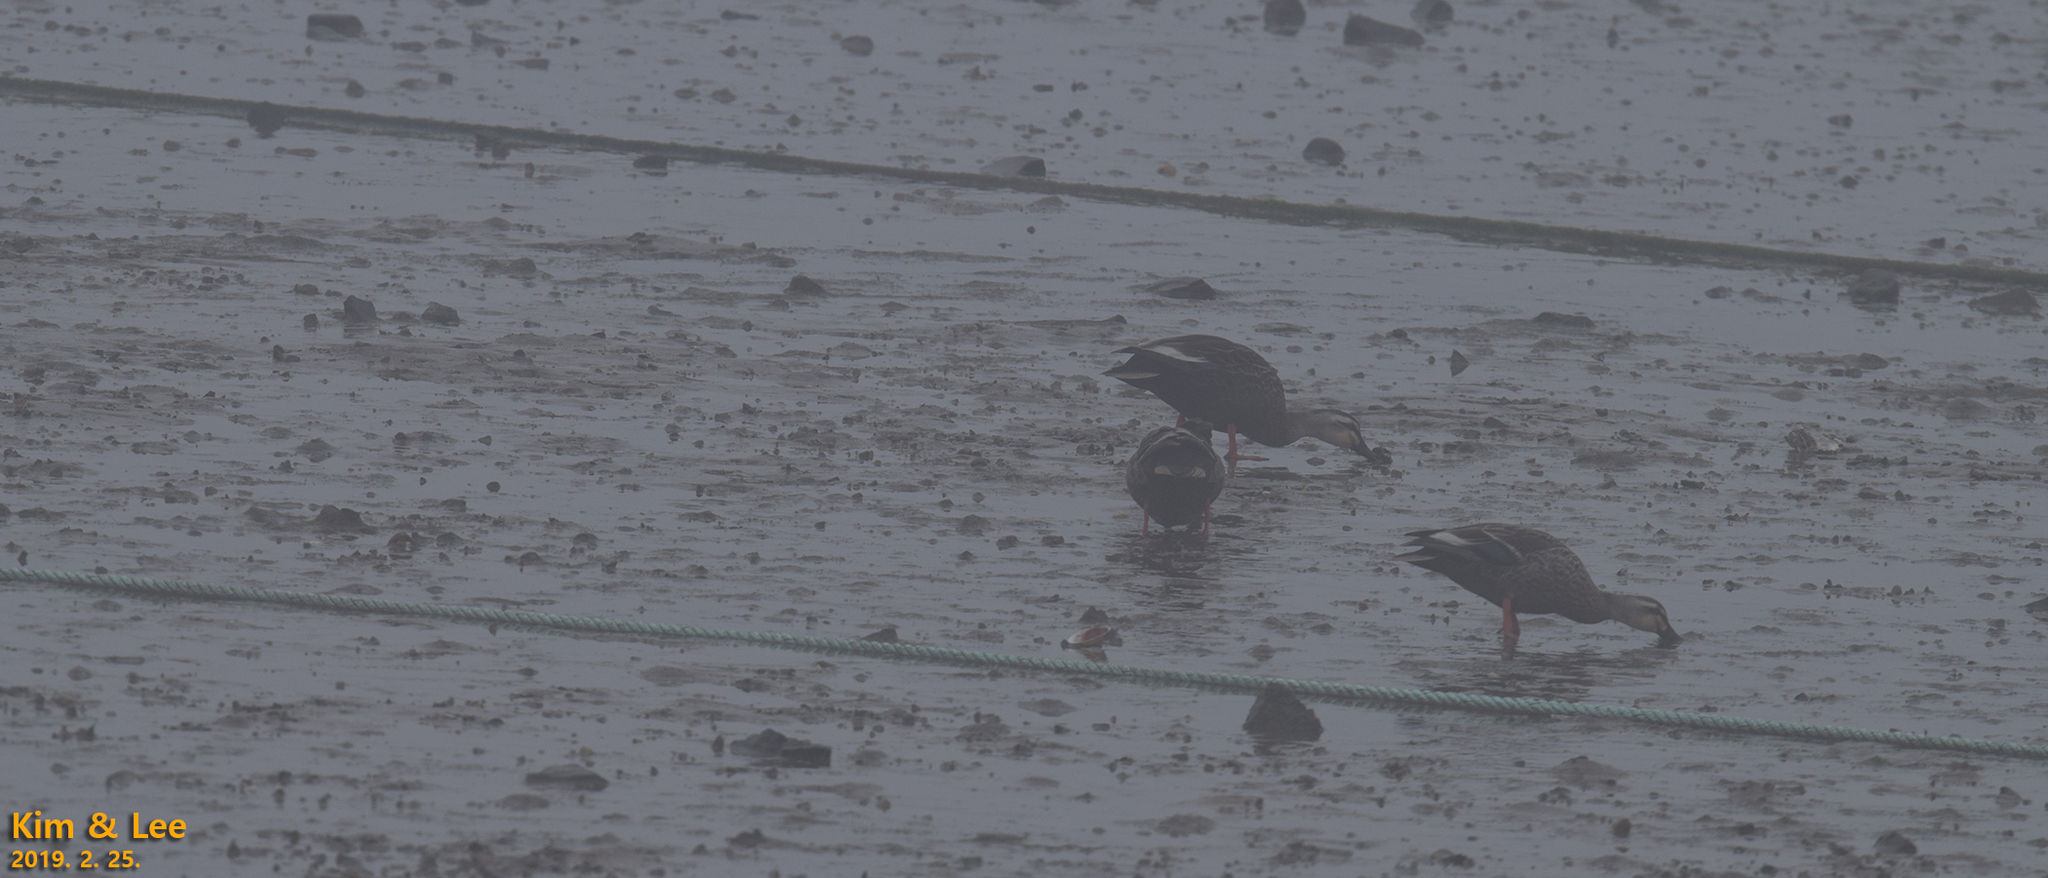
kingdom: Animalia
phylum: Chordata
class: Aves
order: Anseriformes
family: Anatidae
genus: Anas
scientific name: Anas zonorhyncha
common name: Eastern spot-billed duck
